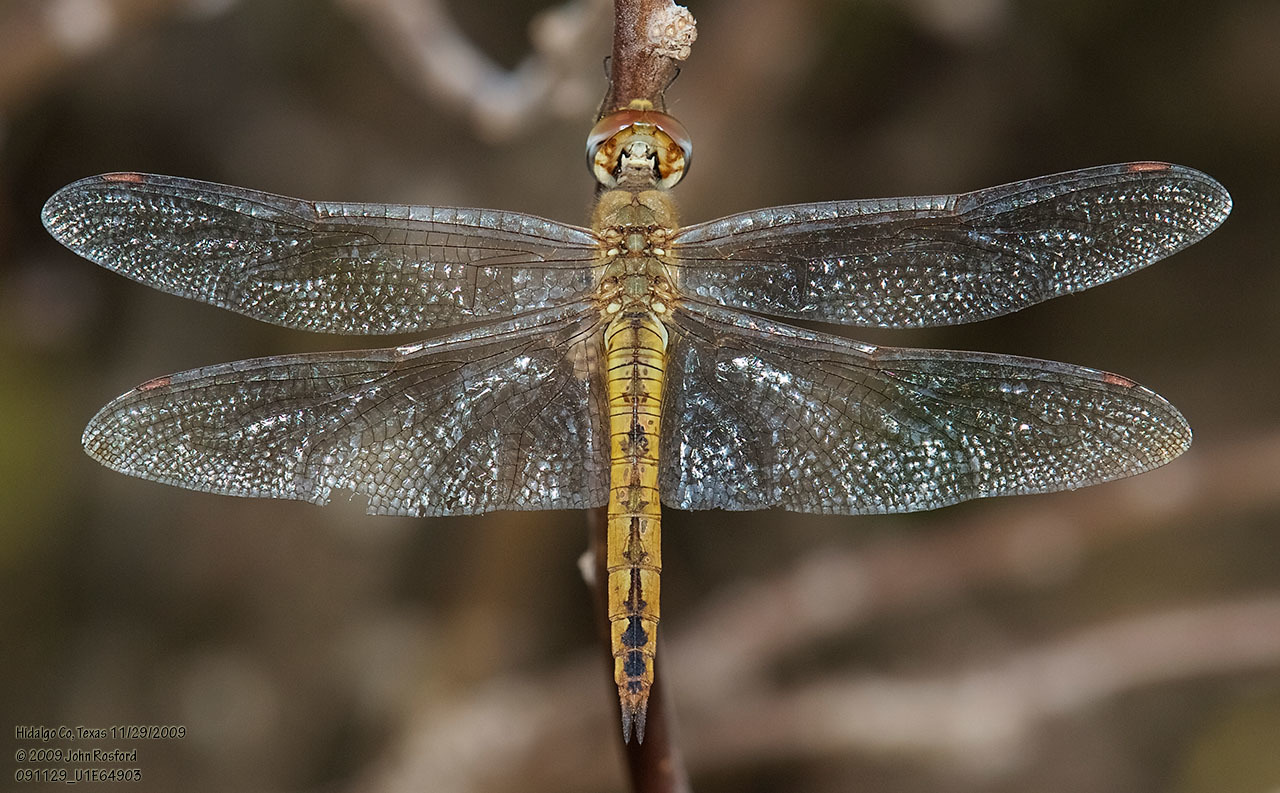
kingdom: Animalia
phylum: Arthropoda
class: Insecta
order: Odonata
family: Libellulidae
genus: Pantala
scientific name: Pantala flavescens
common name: Wandering glider
